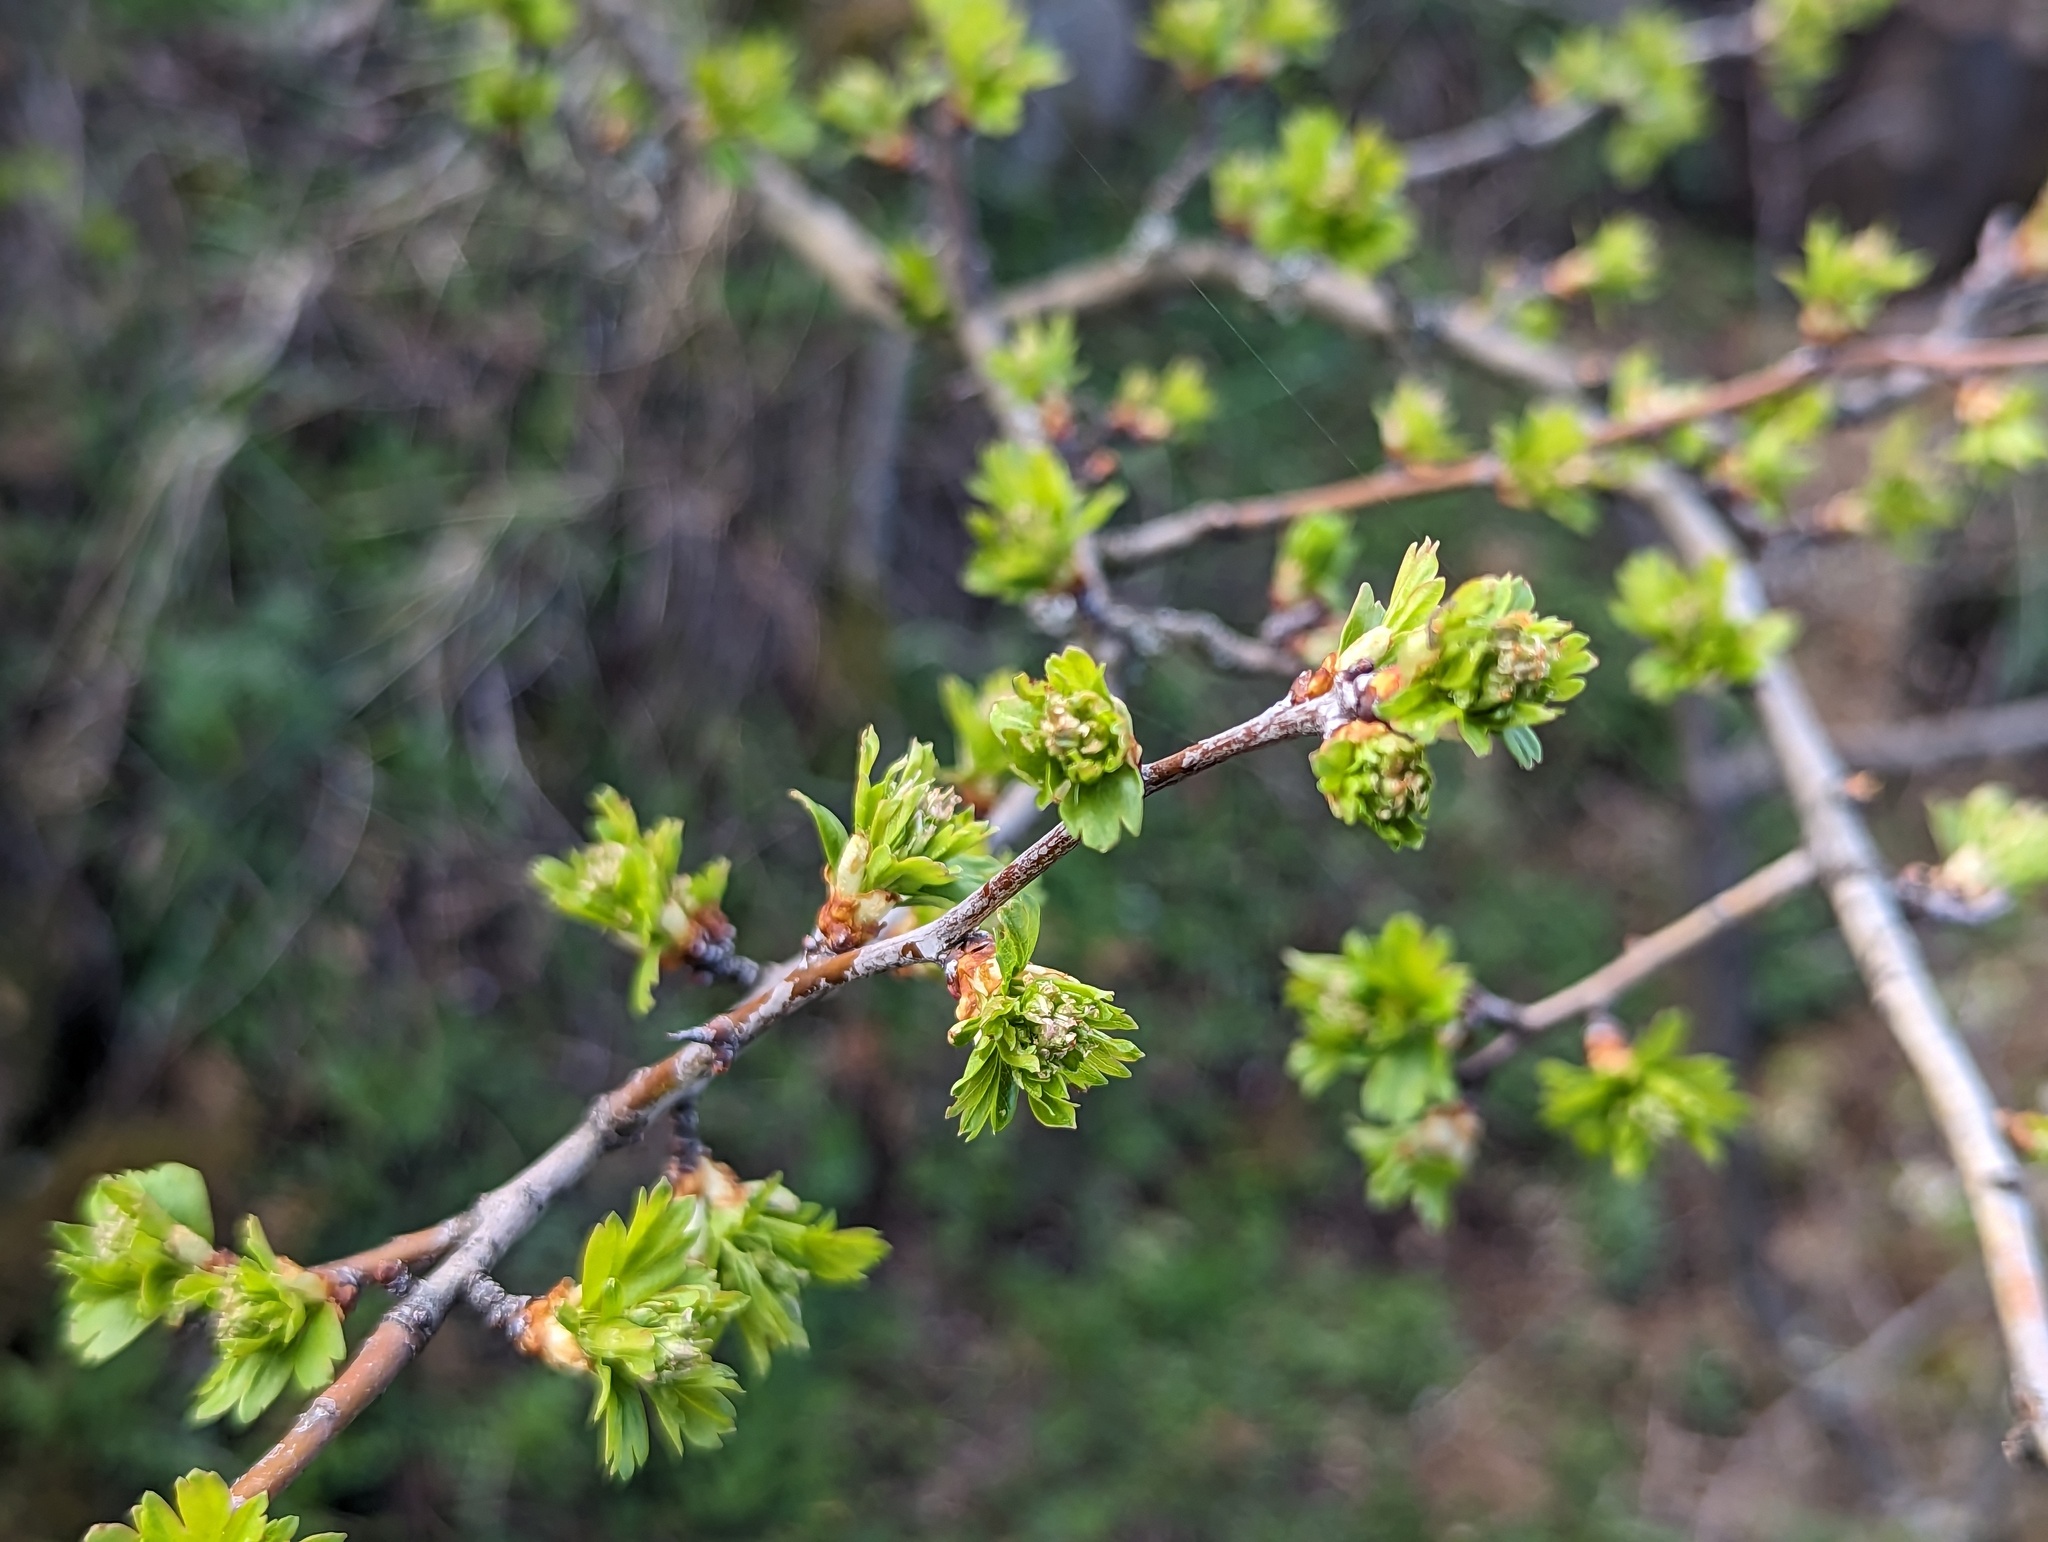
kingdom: Plantae
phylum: Tracheophyta
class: Magnoliopsida
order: Rosales
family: Rosaceae
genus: Crataegus
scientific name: Crataegus monogyna
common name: Hawthorn
